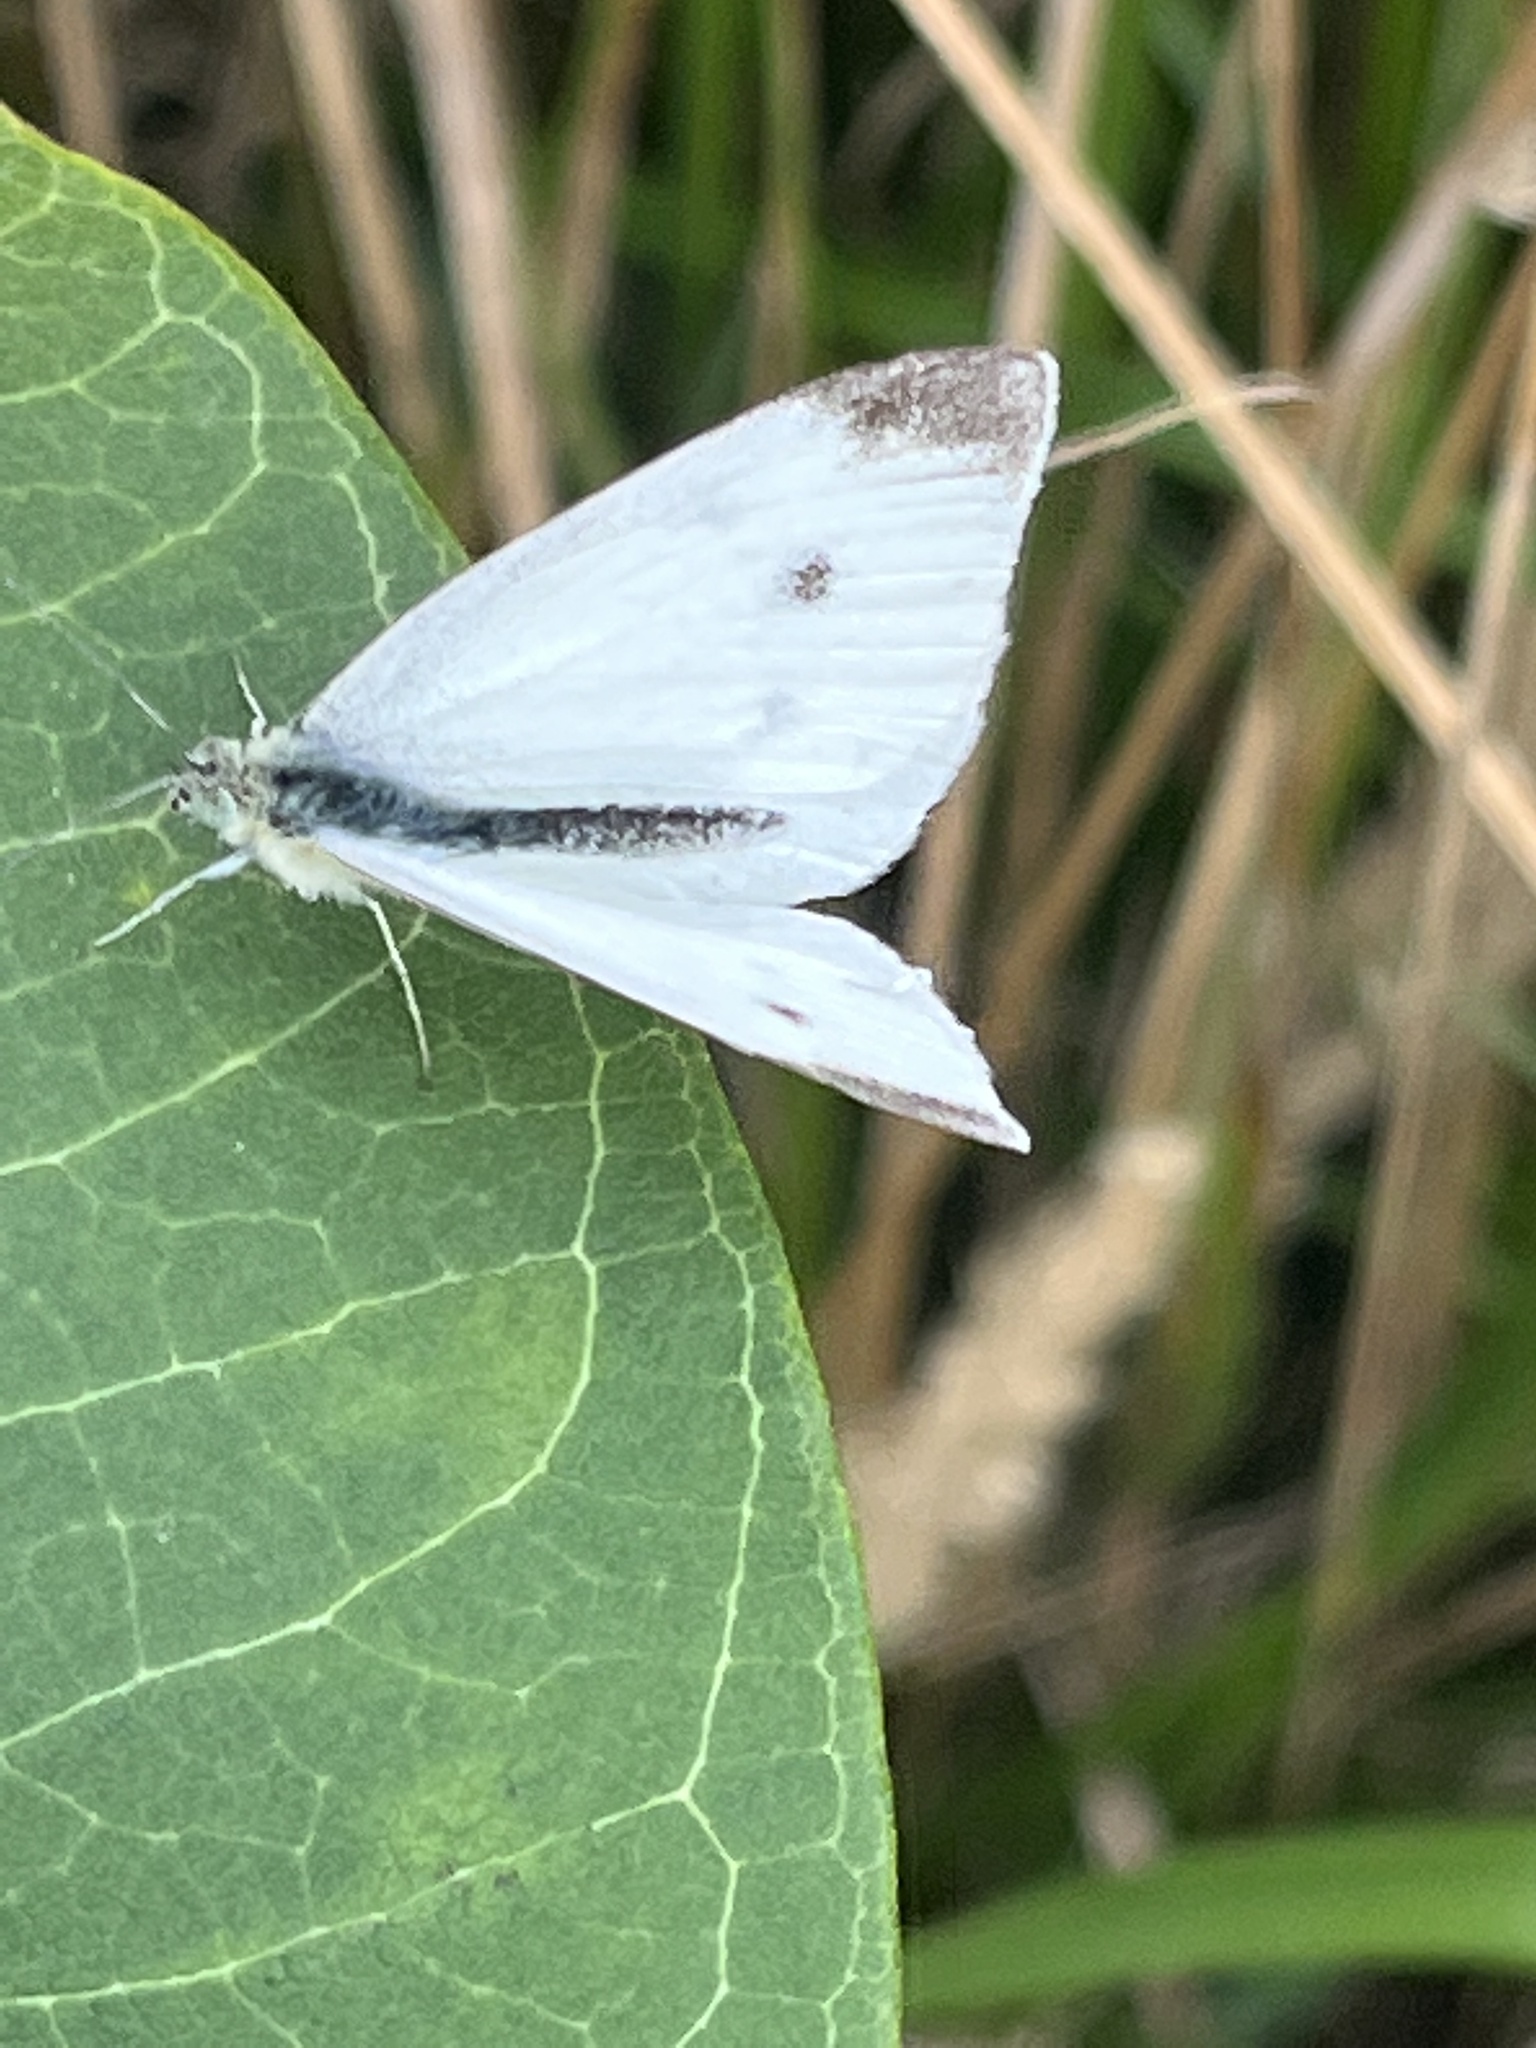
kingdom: Animalia
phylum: Arthropoda
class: Insecta
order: Lepidoptera
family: Pieridae
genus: Pieris
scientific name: Pieris rapae
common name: Small white
